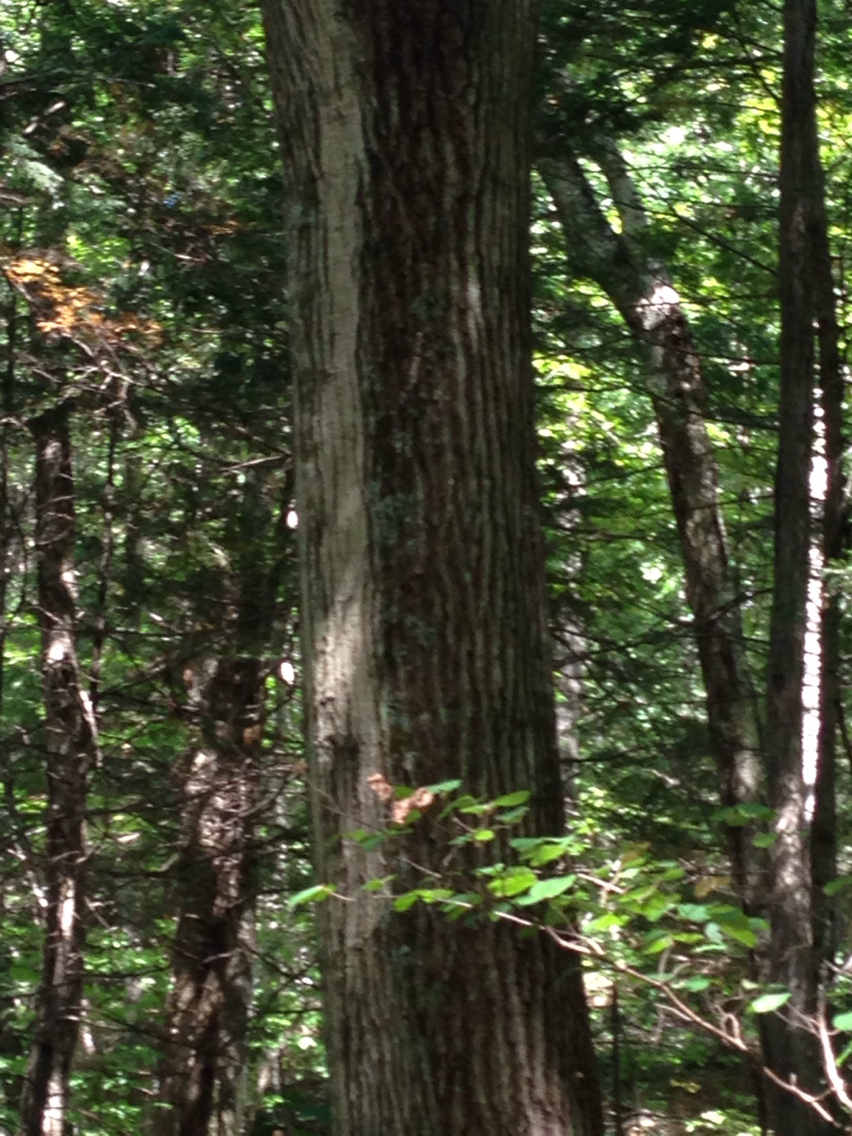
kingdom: Plantae
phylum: Tracheophyta
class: Magnoliopsida
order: Fagales
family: Fagaceae
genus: Quercus
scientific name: Quercus rubra
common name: Red oak
